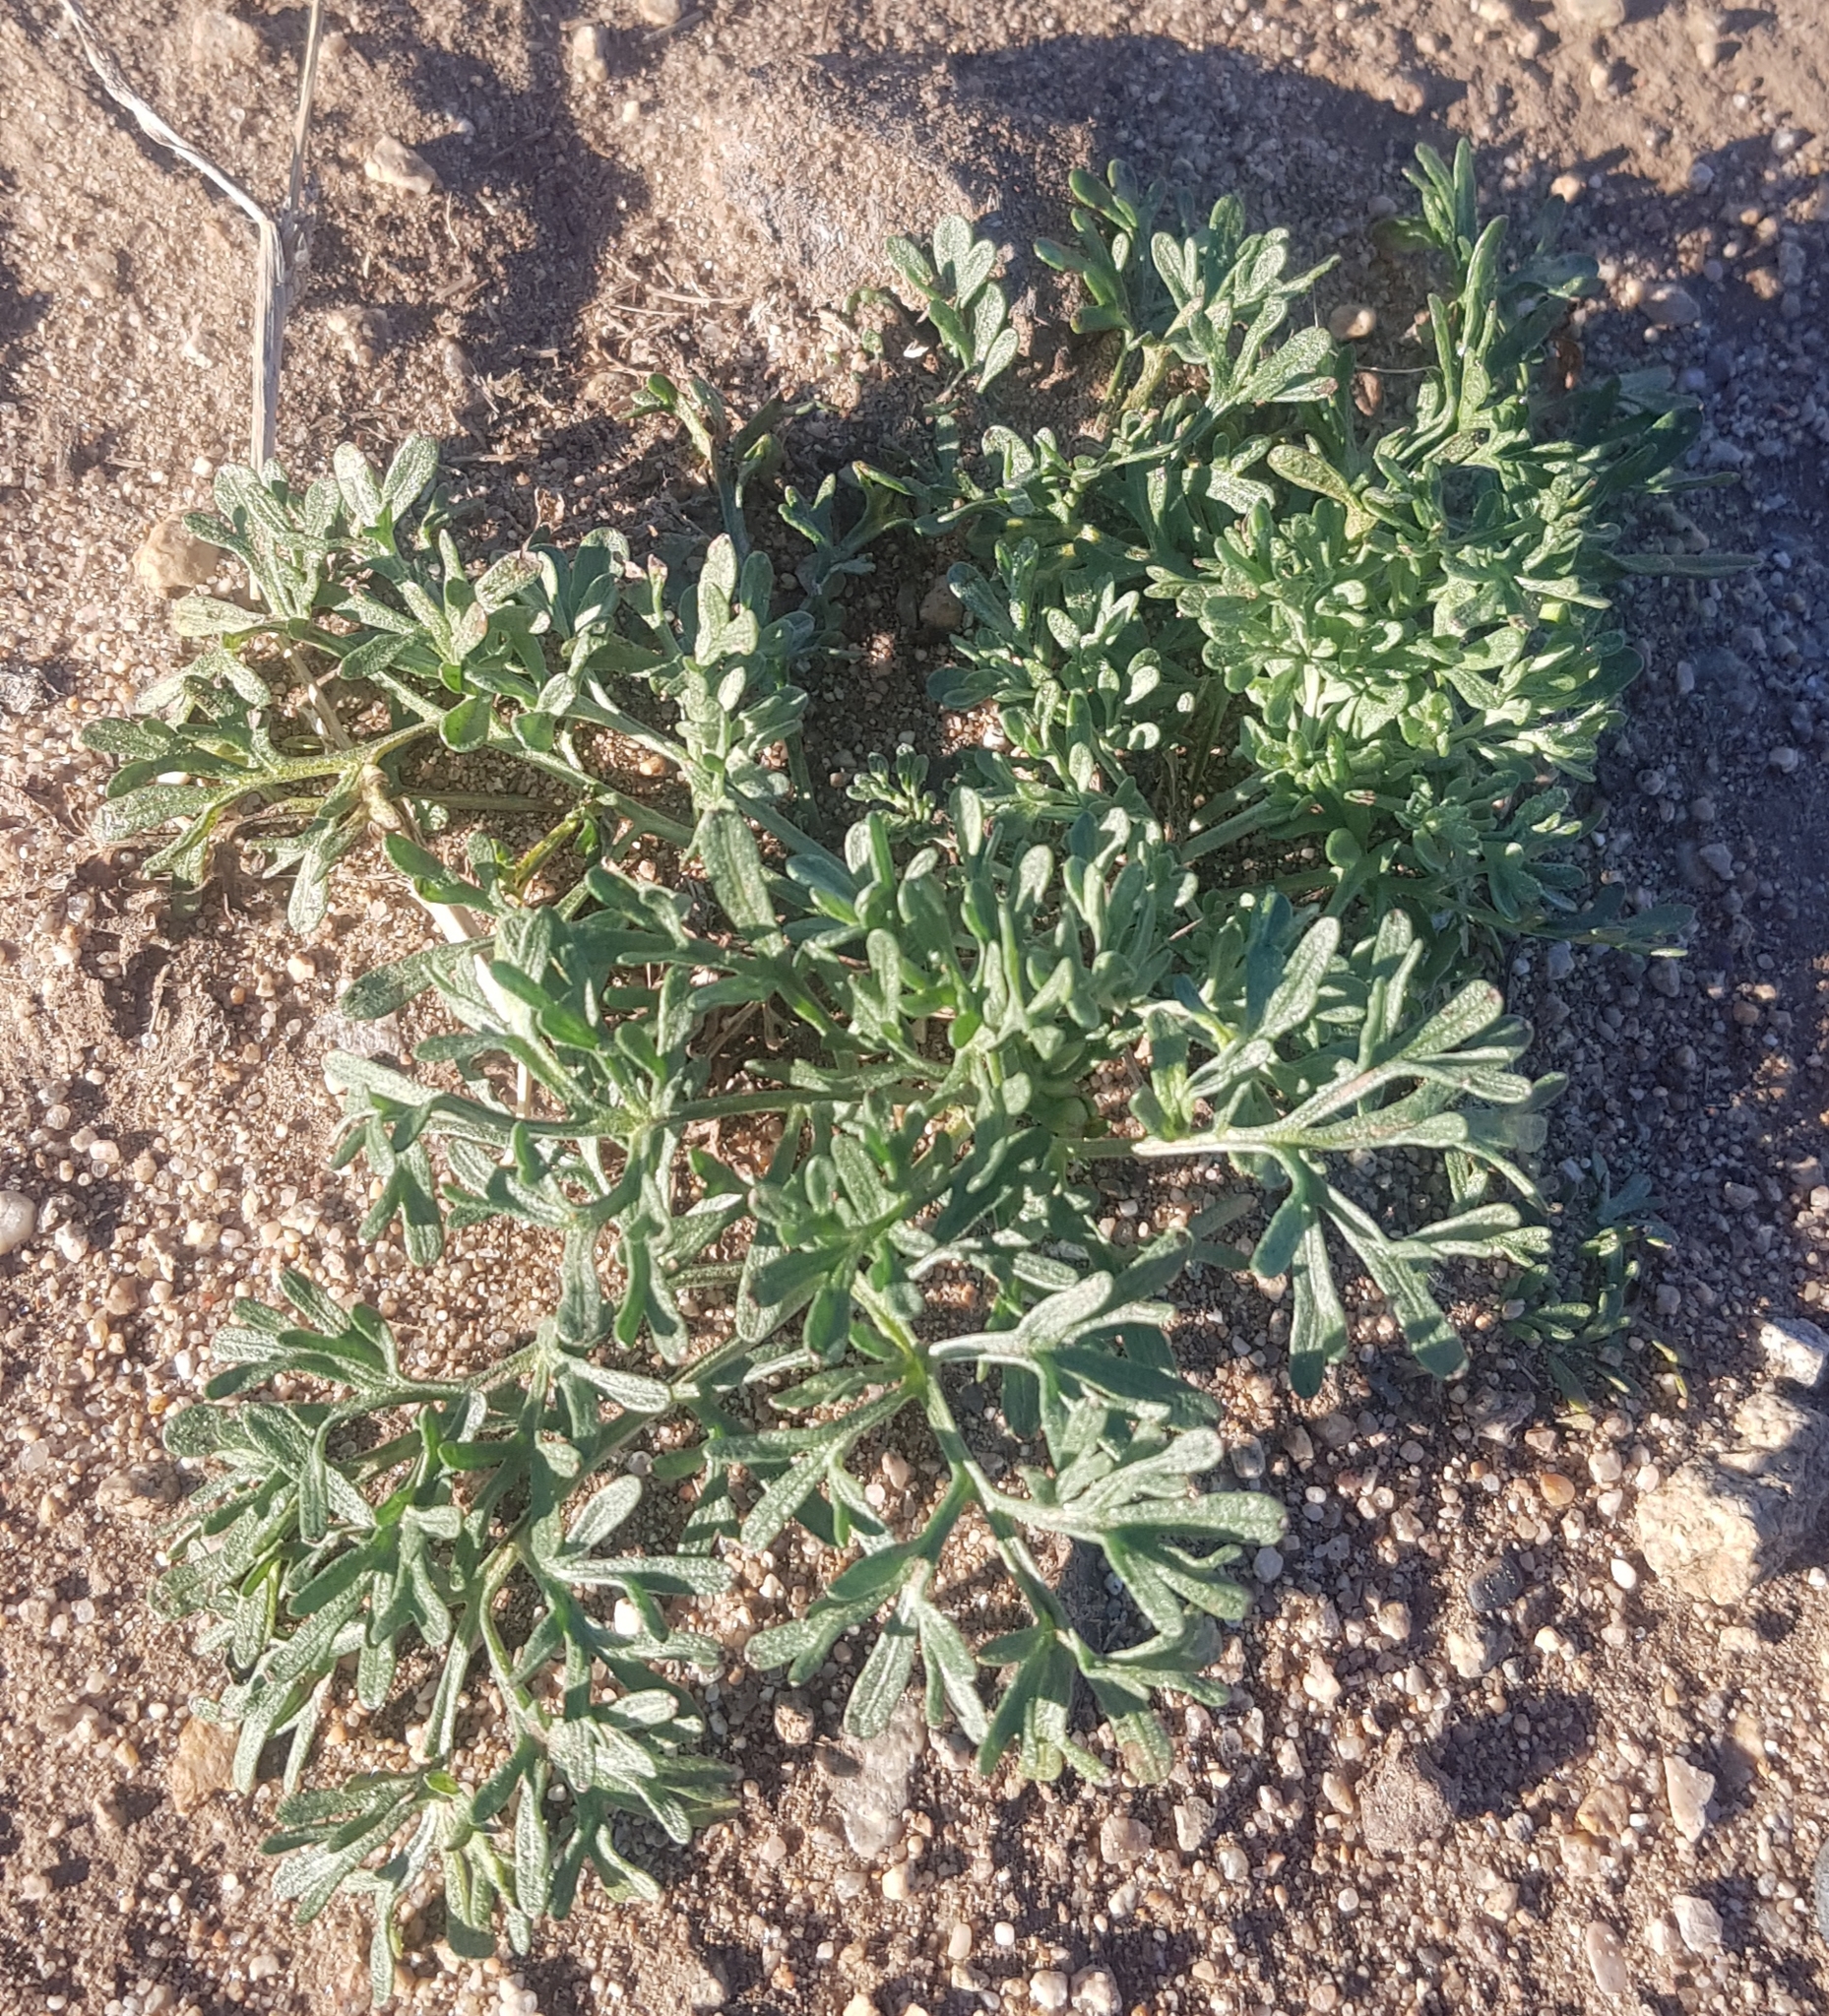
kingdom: Plantae
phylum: Tracheophyta
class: Magnoliopsida
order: Asterales
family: Asteraceae
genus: Artemisia
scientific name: Artemisia sieversiana
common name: Sieversian wormwood
